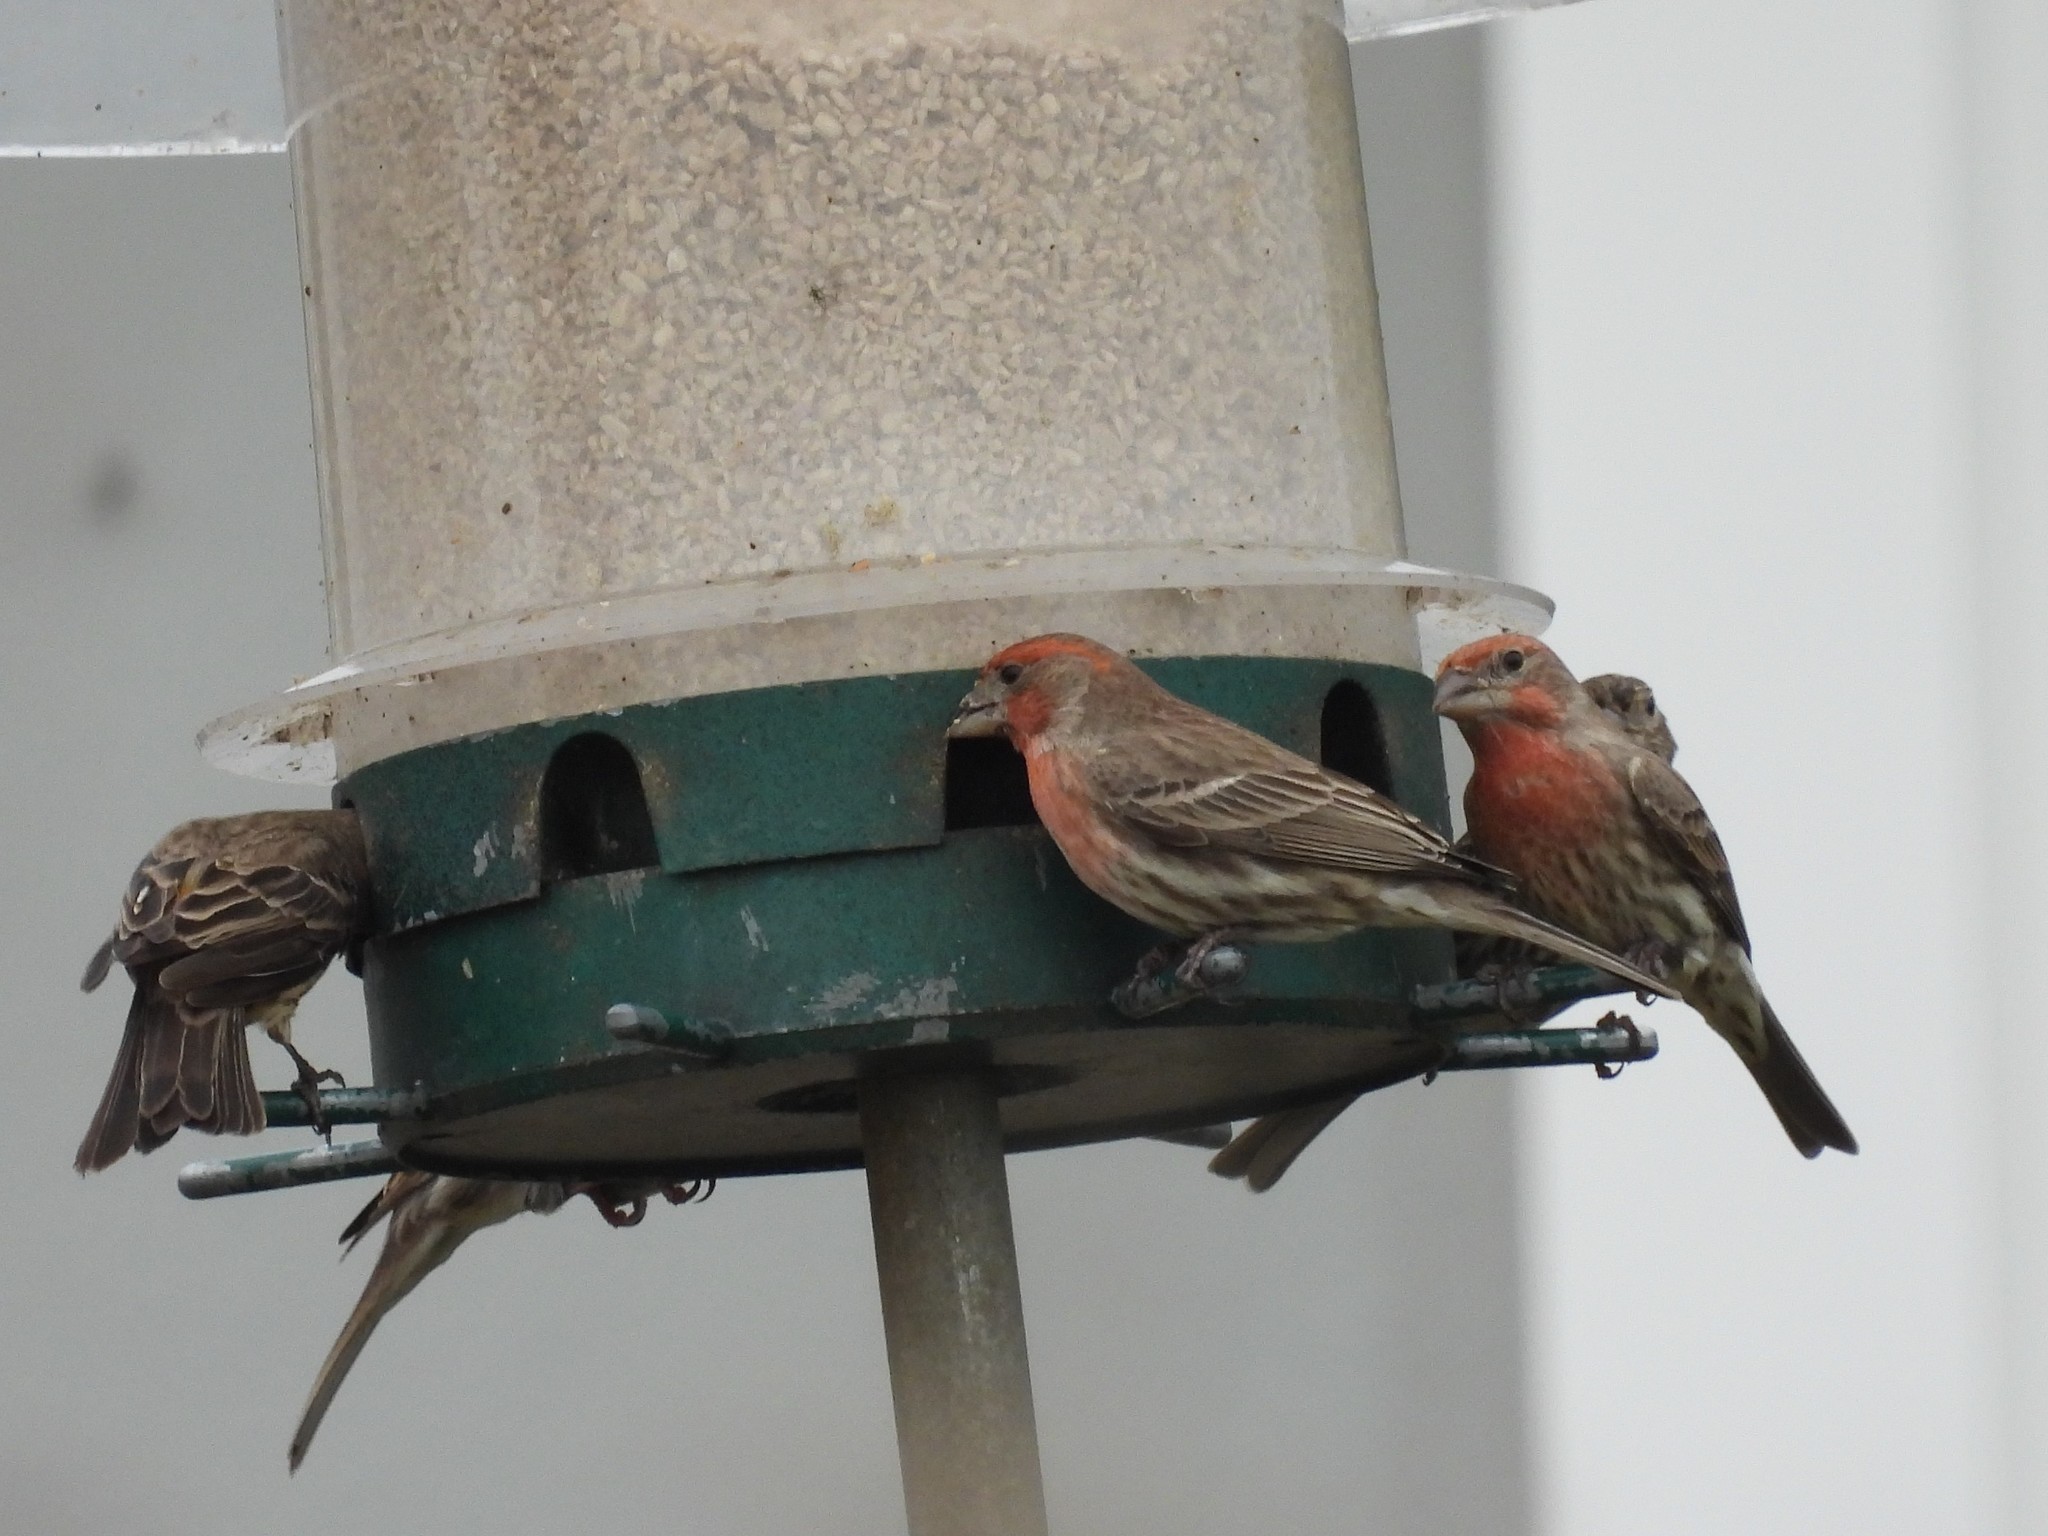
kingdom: Animalia
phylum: Chordata
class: Aves
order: Passeriformes
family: Fringillidae
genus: Haemorhous
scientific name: Haemorhous mexicanus
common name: House finch
